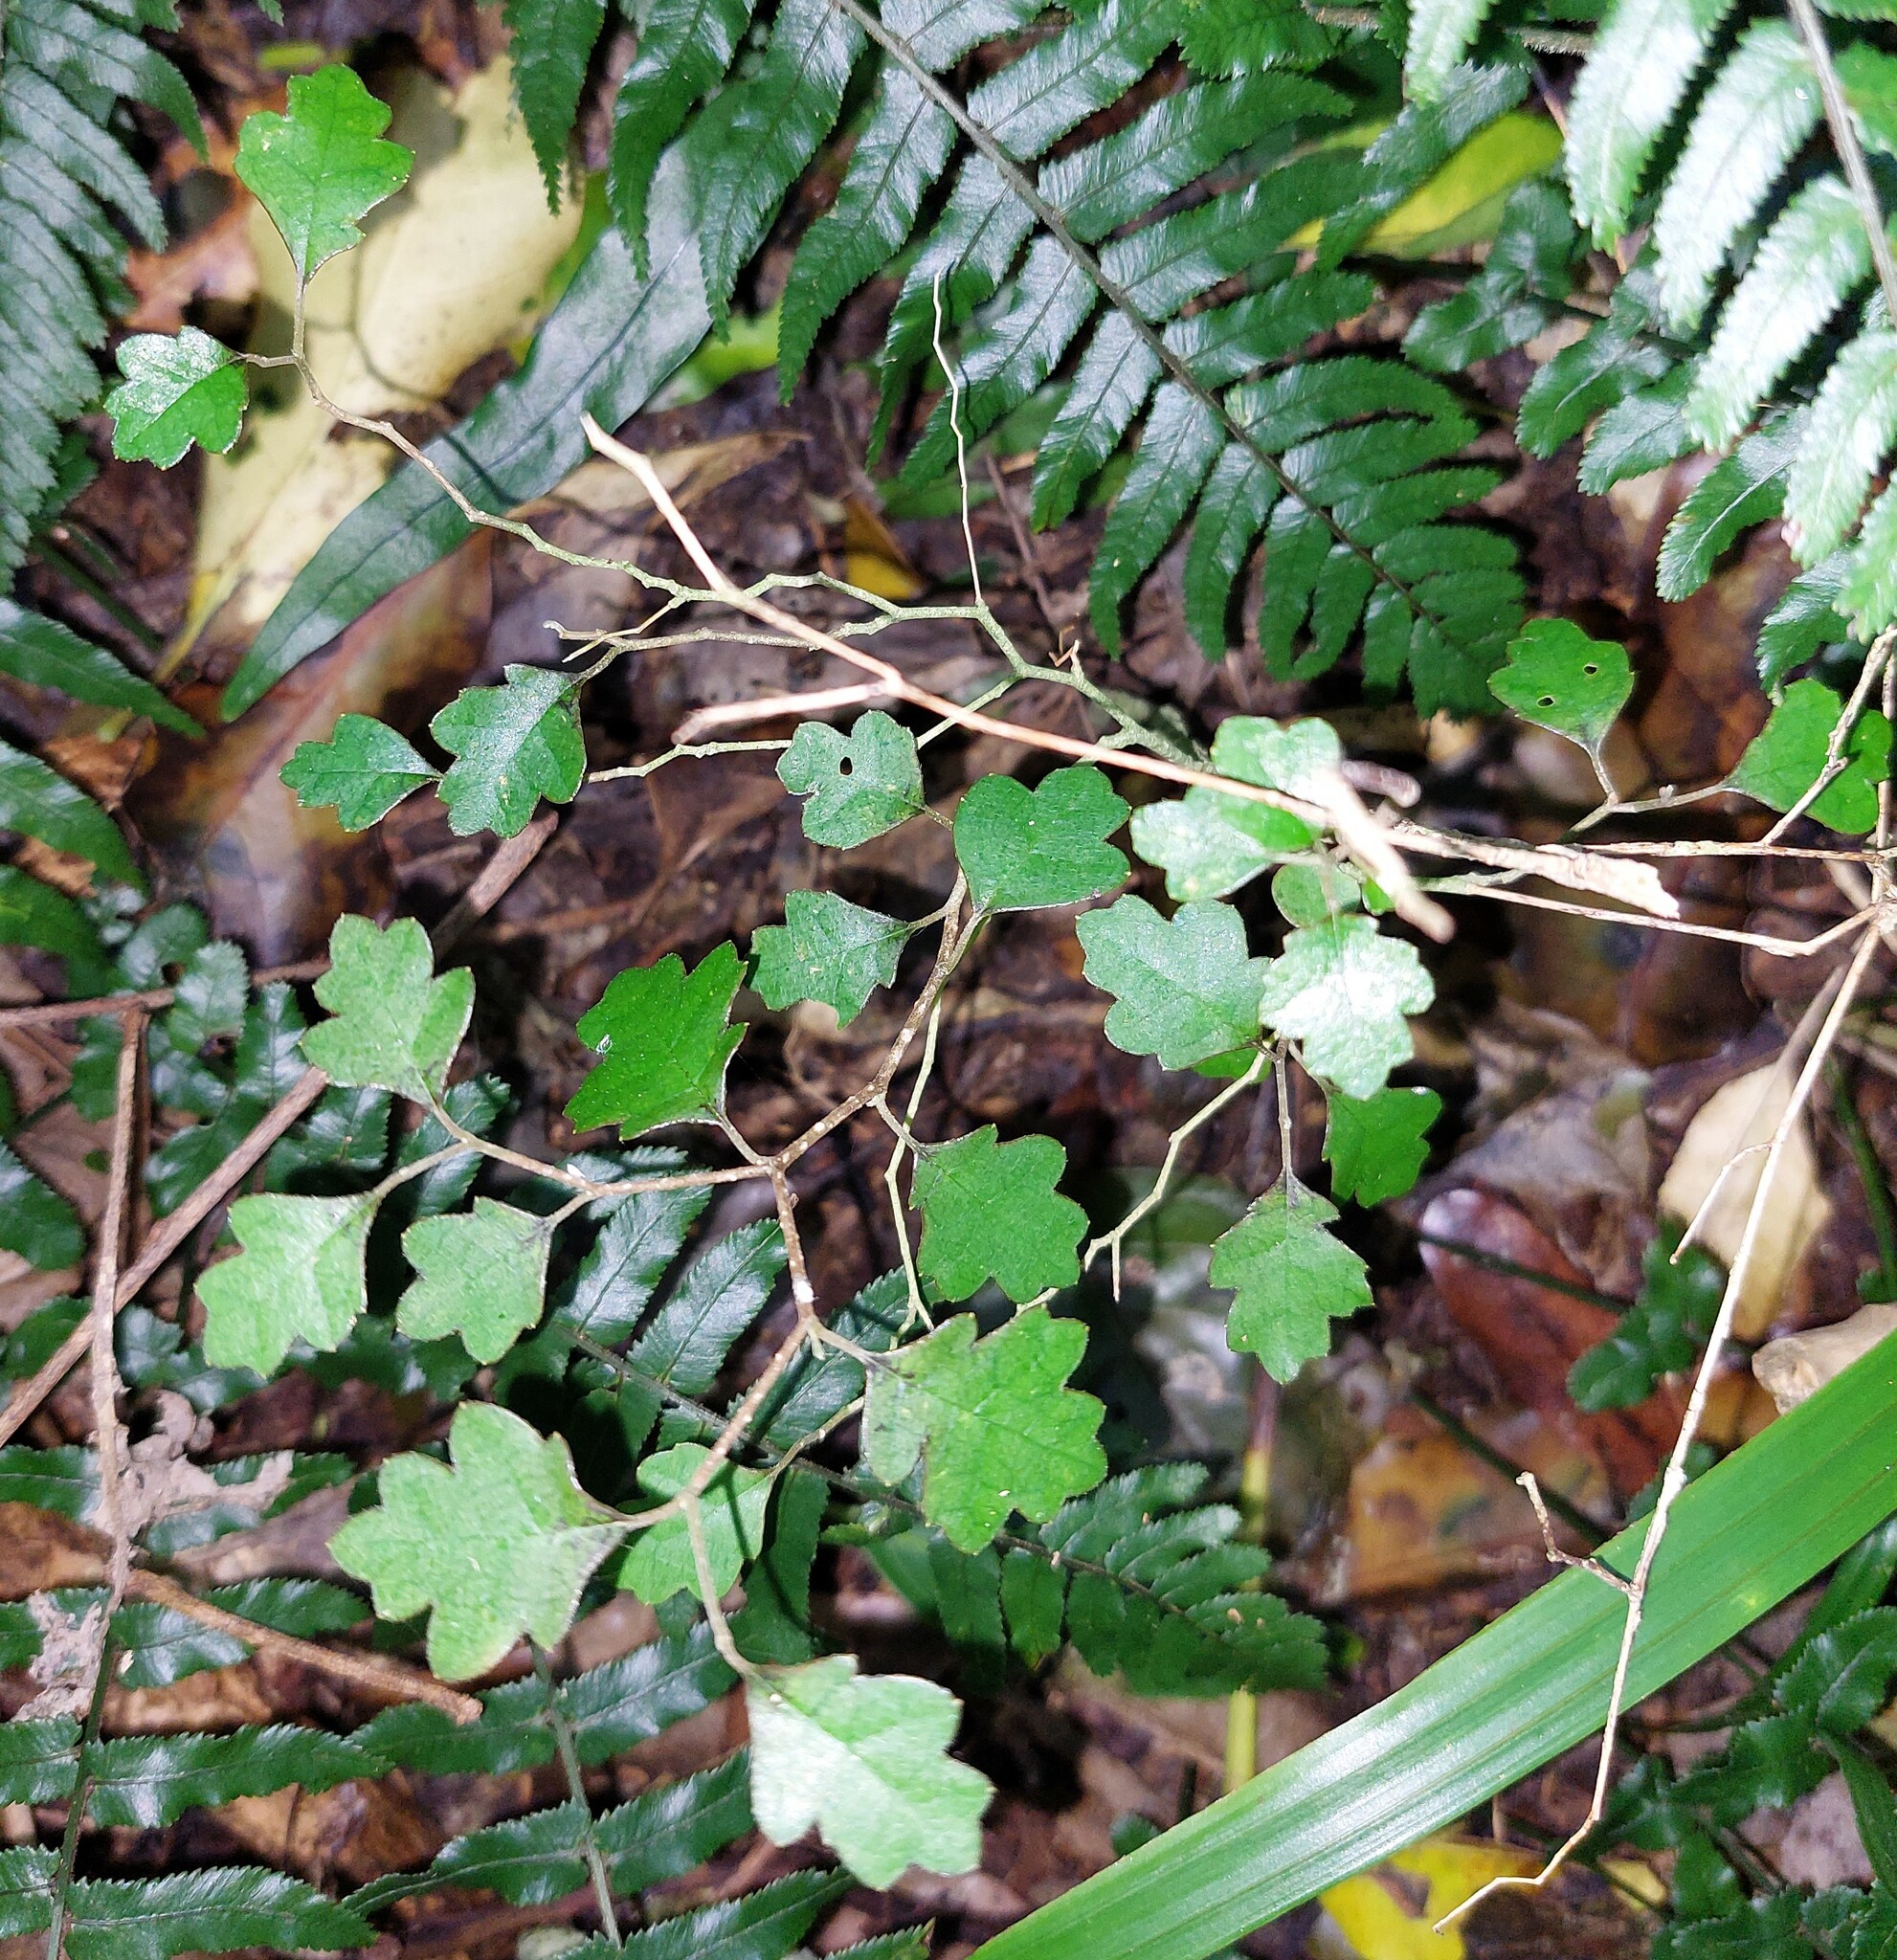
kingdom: Plantae
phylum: Tracheophyta
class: Magnoliopsida
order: Apiales
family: Pennantiaceae
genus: Pennantia
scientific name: Pennantia corymbosa
